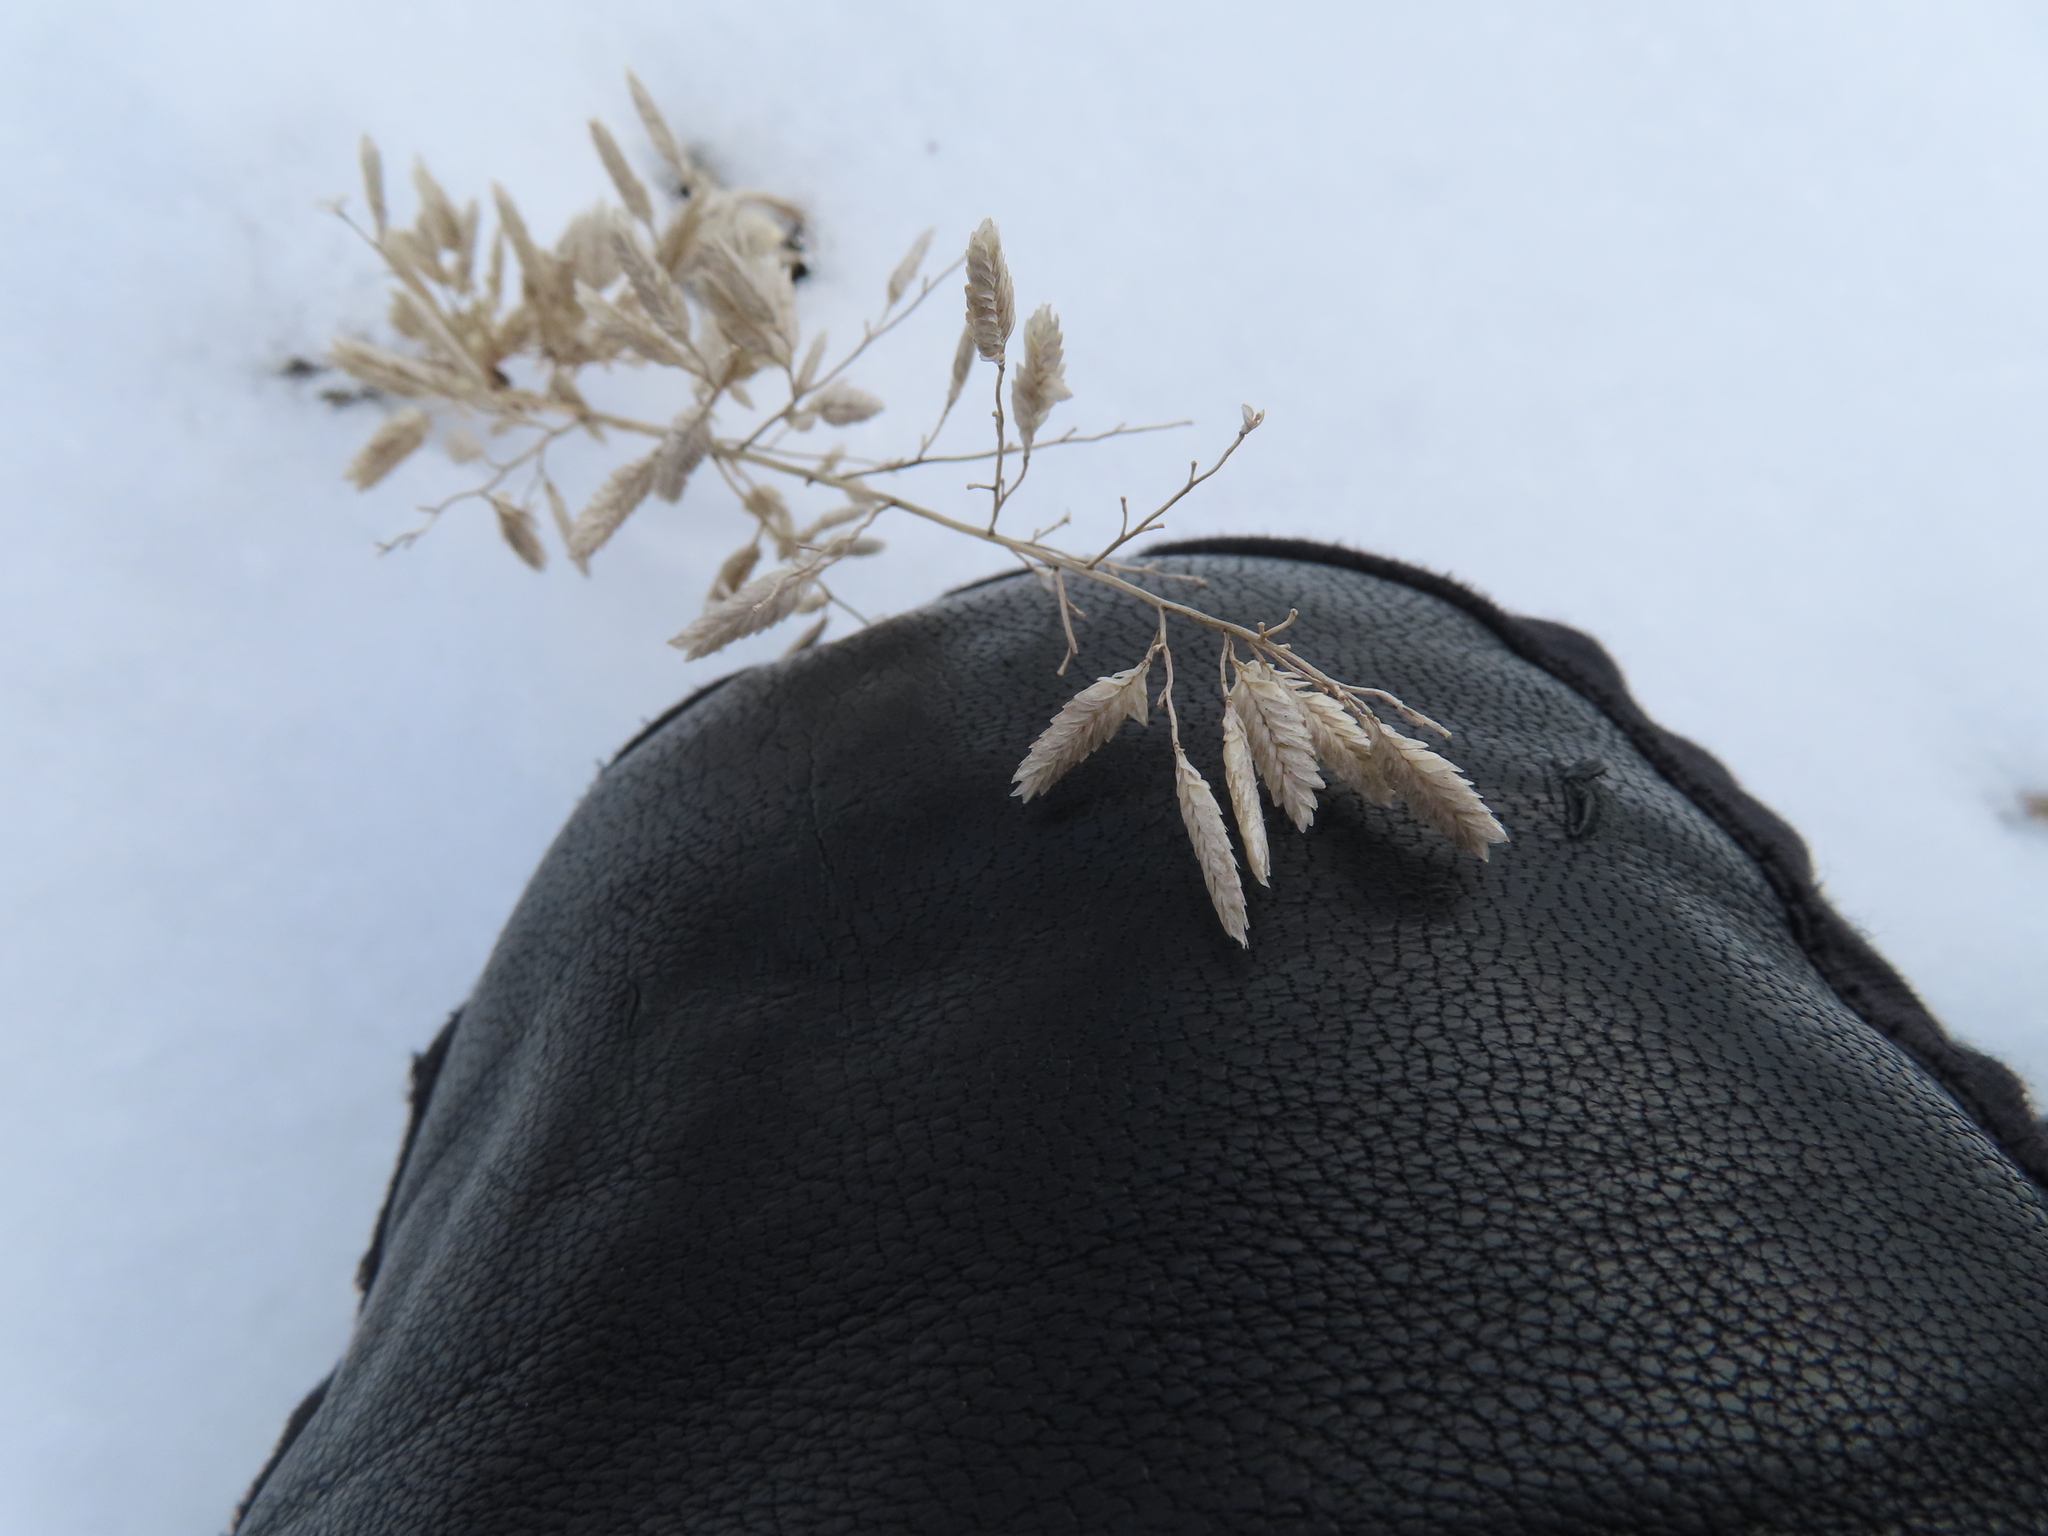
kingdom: Plantae
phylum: Tracheophyta
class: Liliopsida
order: Poales
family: Poaceae
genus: Eragrostis
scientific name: Eragrostis cilianensis
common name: Stinkgrass
